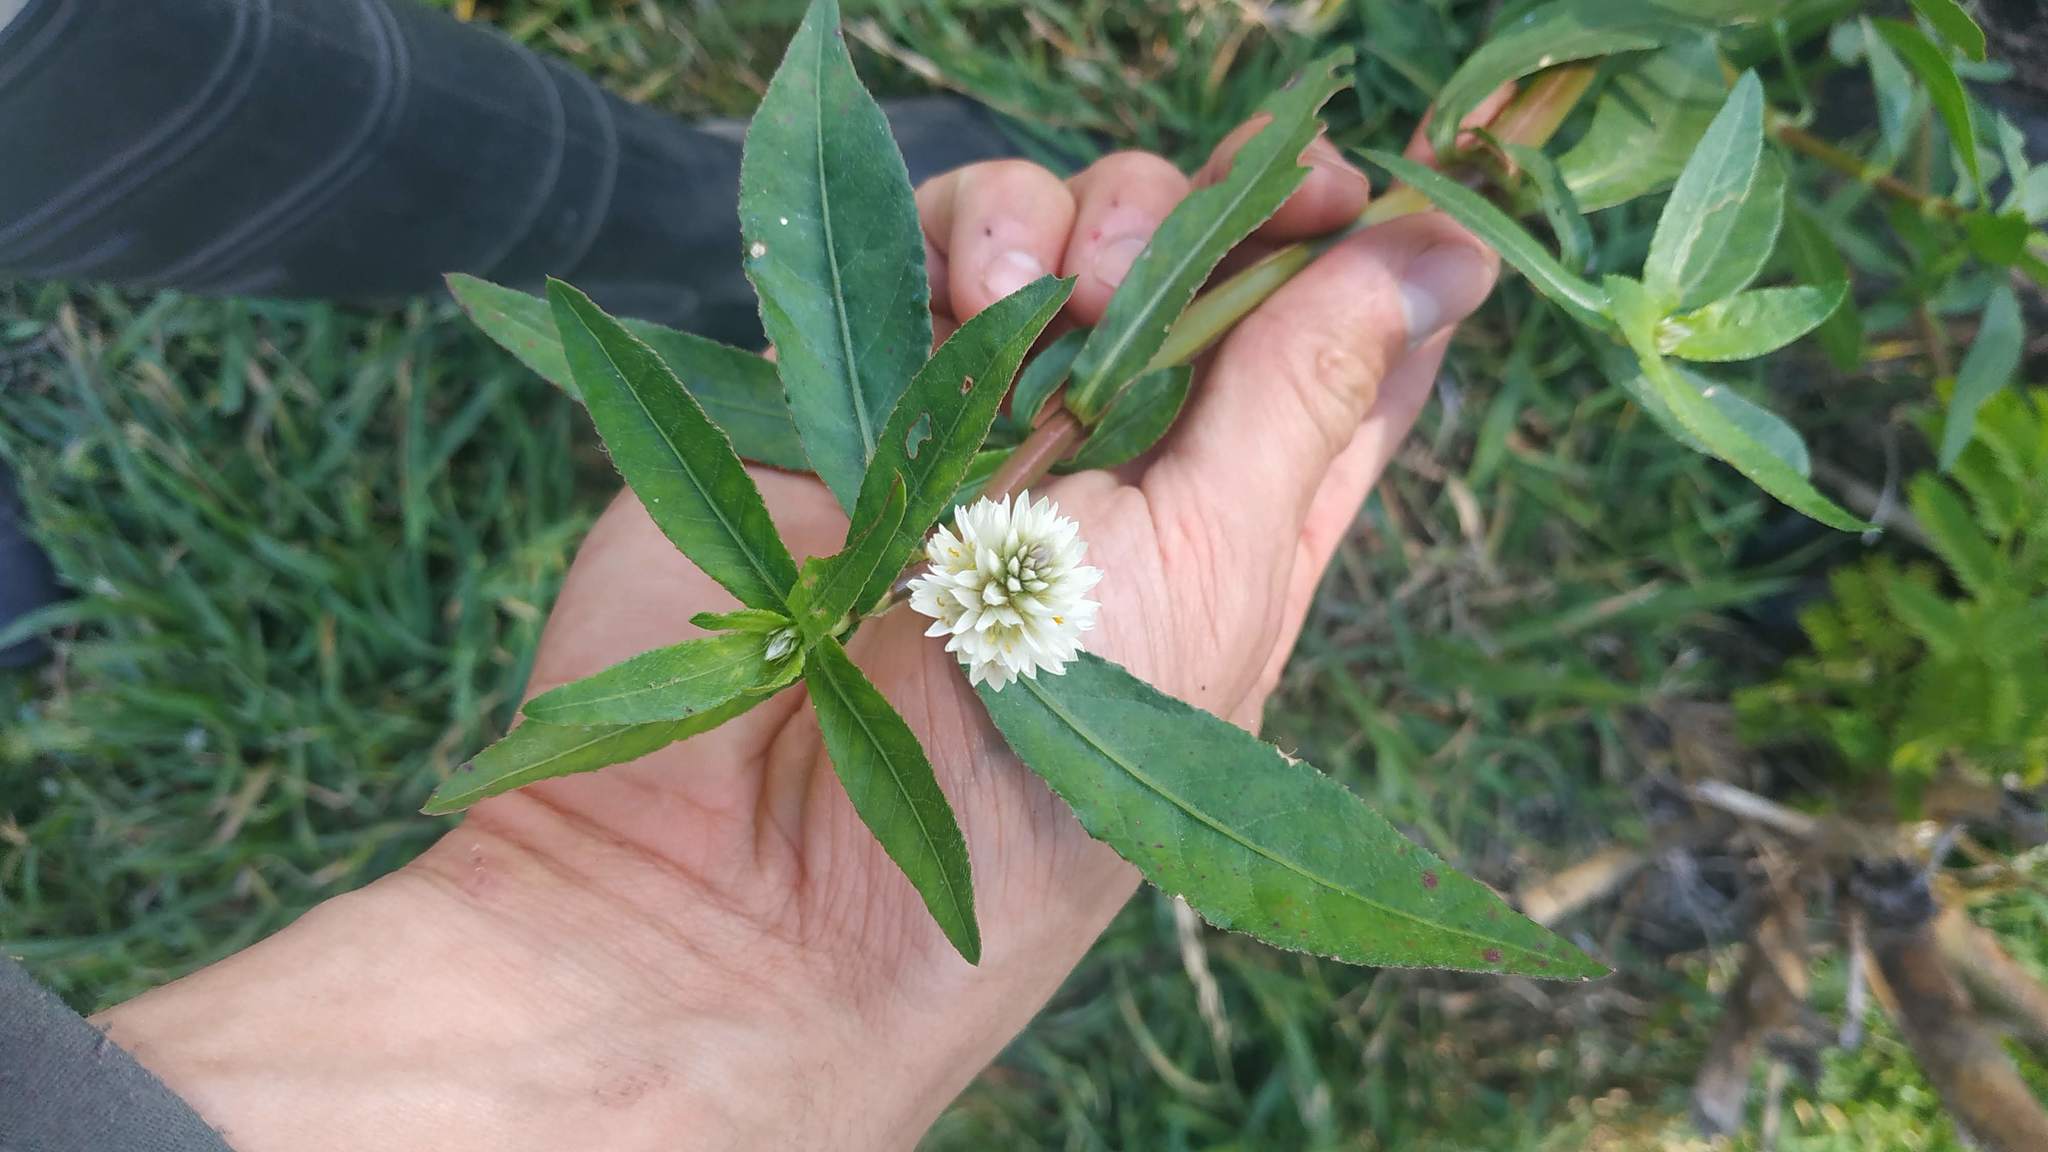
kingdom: Plantae
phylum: Tracheophyta
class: Magnoliopsida
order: Caryophyllales
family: Amaranthaceae
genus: Alternanthera
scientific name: Alternanthera philoxeroides
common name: Alligatorweed
